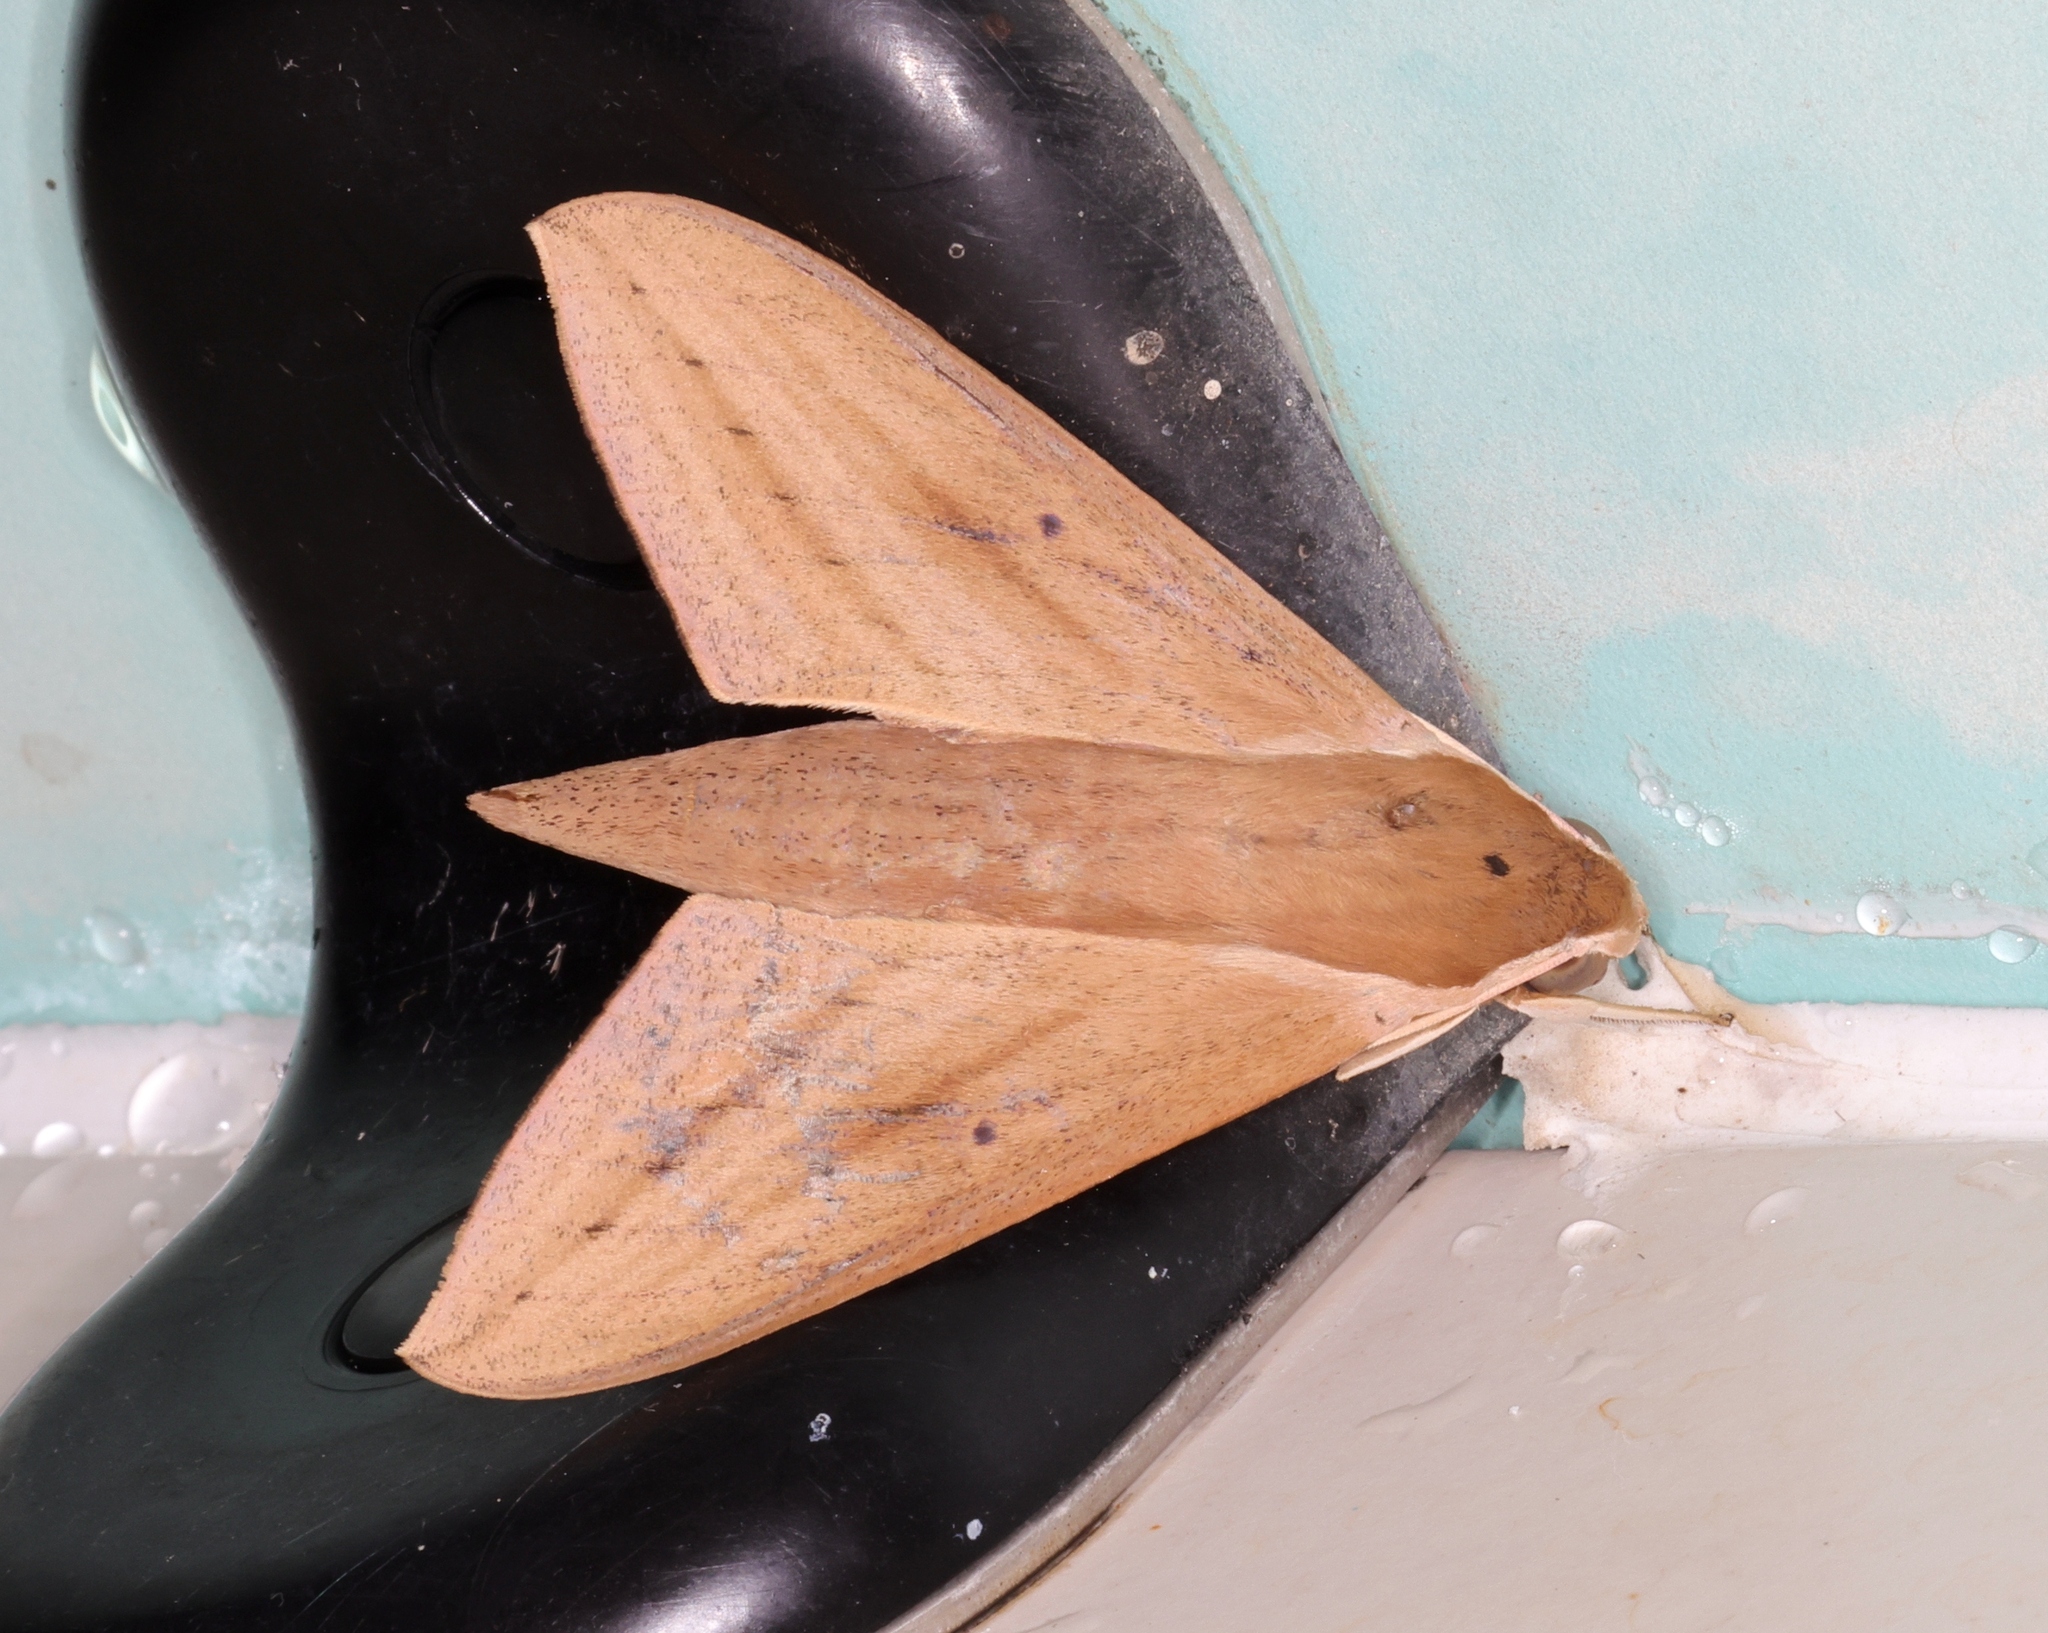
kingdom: Animalia
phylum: Arthropoda
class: Insecta
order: Lepidoptera
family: Sphingidae
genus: Theretra
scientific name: Theretra boisduvalii
